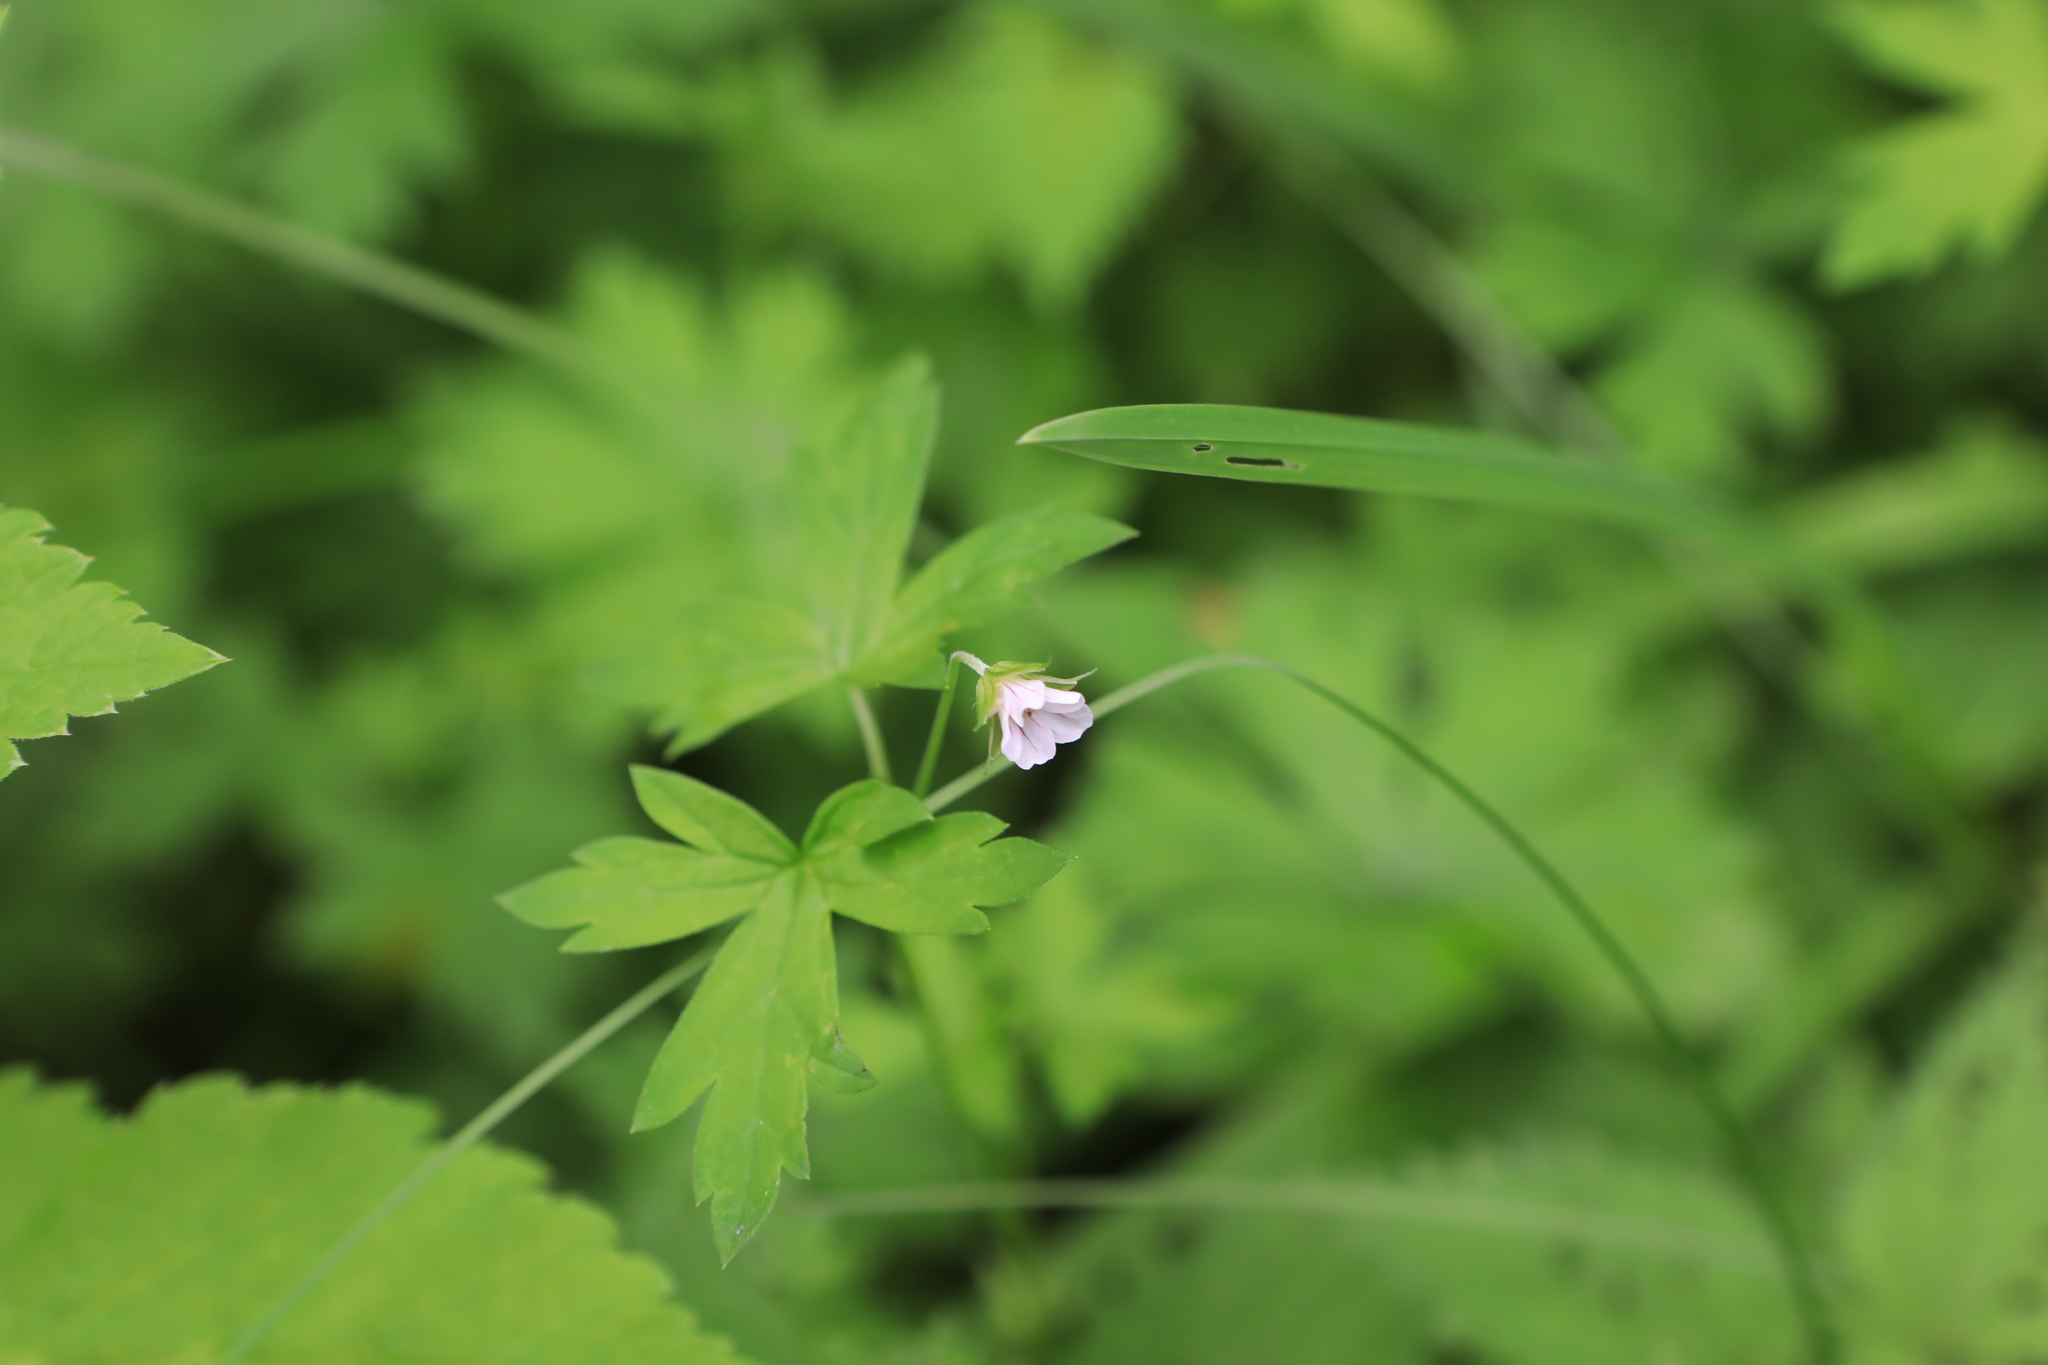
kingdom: Plantae
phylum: Tracheophyta
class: Magnoliopsida
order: Geraniales
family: Geraniaceae
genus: Geranium
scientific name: Geranium sibiricum
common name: Siberian crane's-bill
